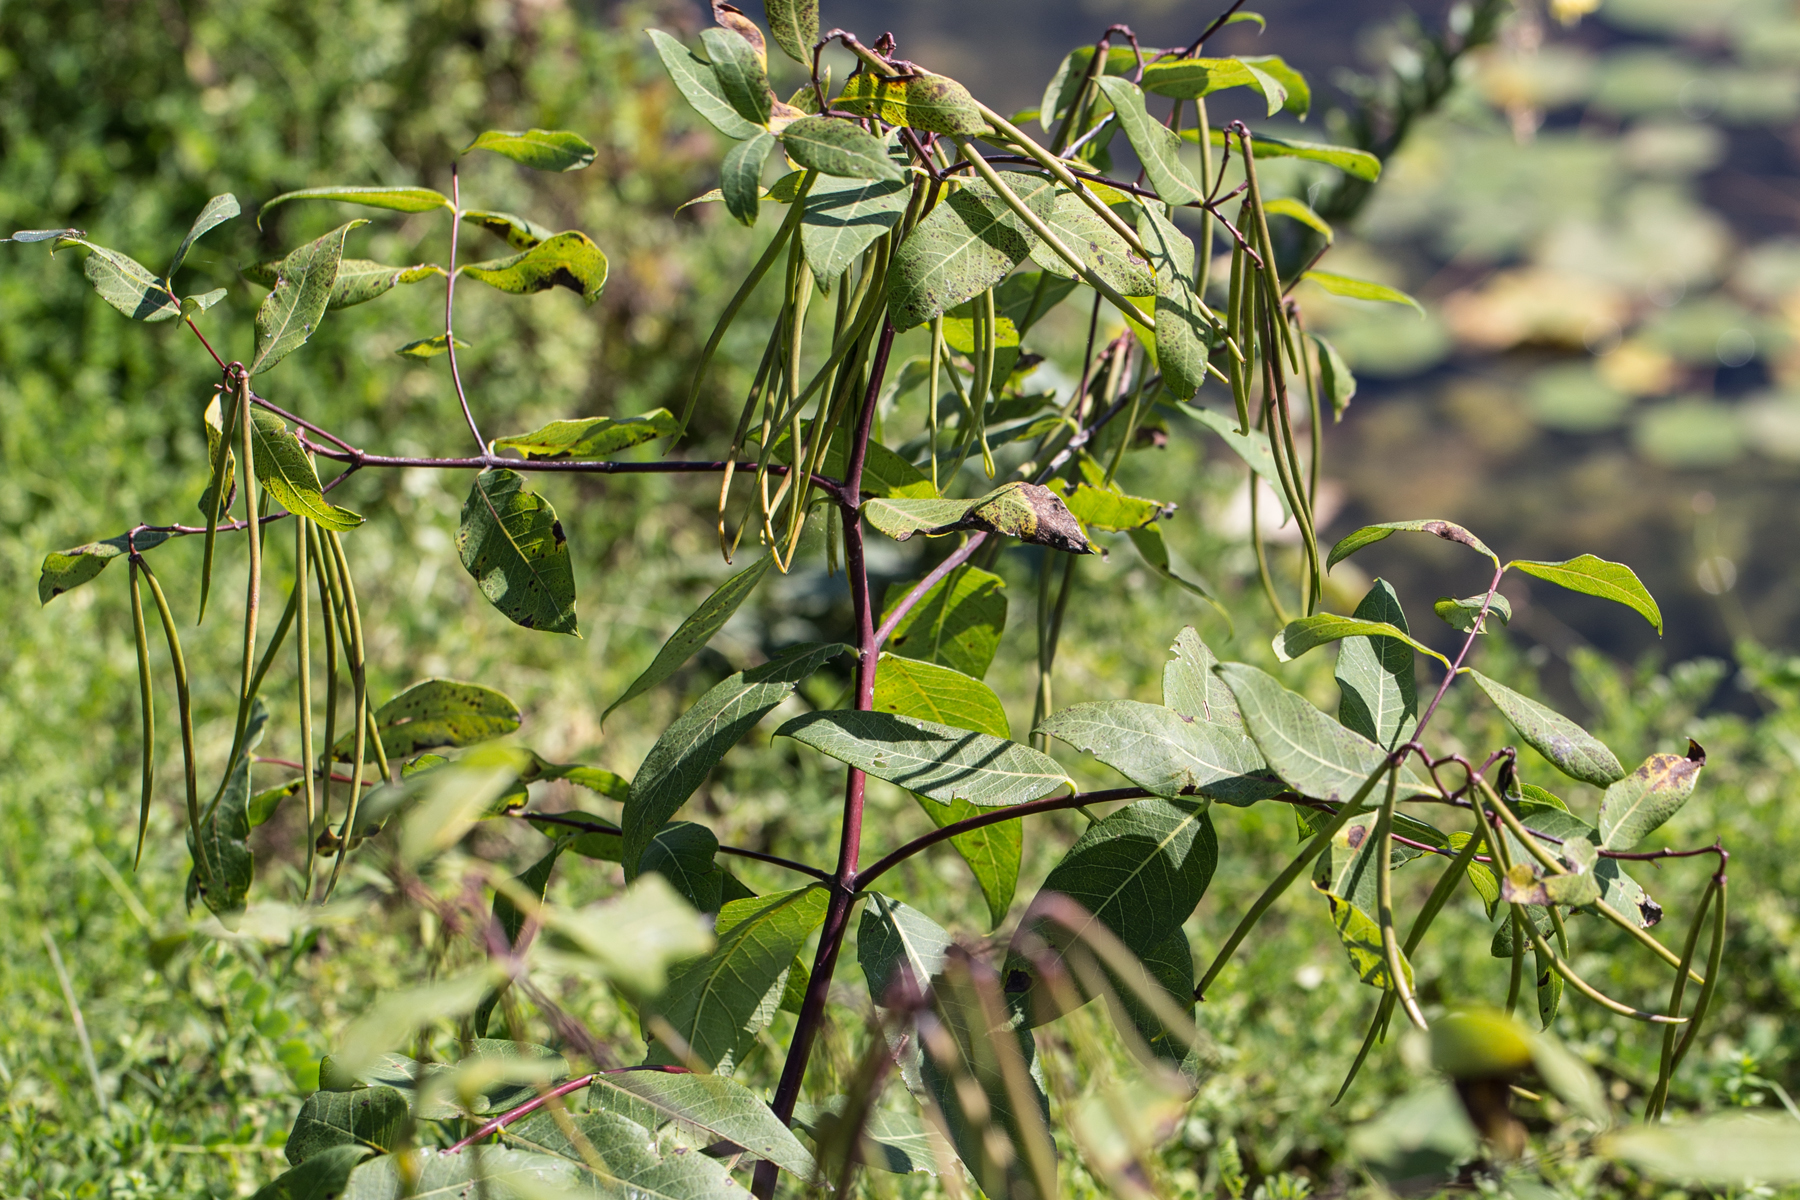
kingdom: Plantae
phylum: Tracheophyta
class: Magnoliopsida
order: Gentianales
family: Apocynaceae
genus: Apocynum
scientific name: Apocynum cannabinum
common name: Hemp dogbane
